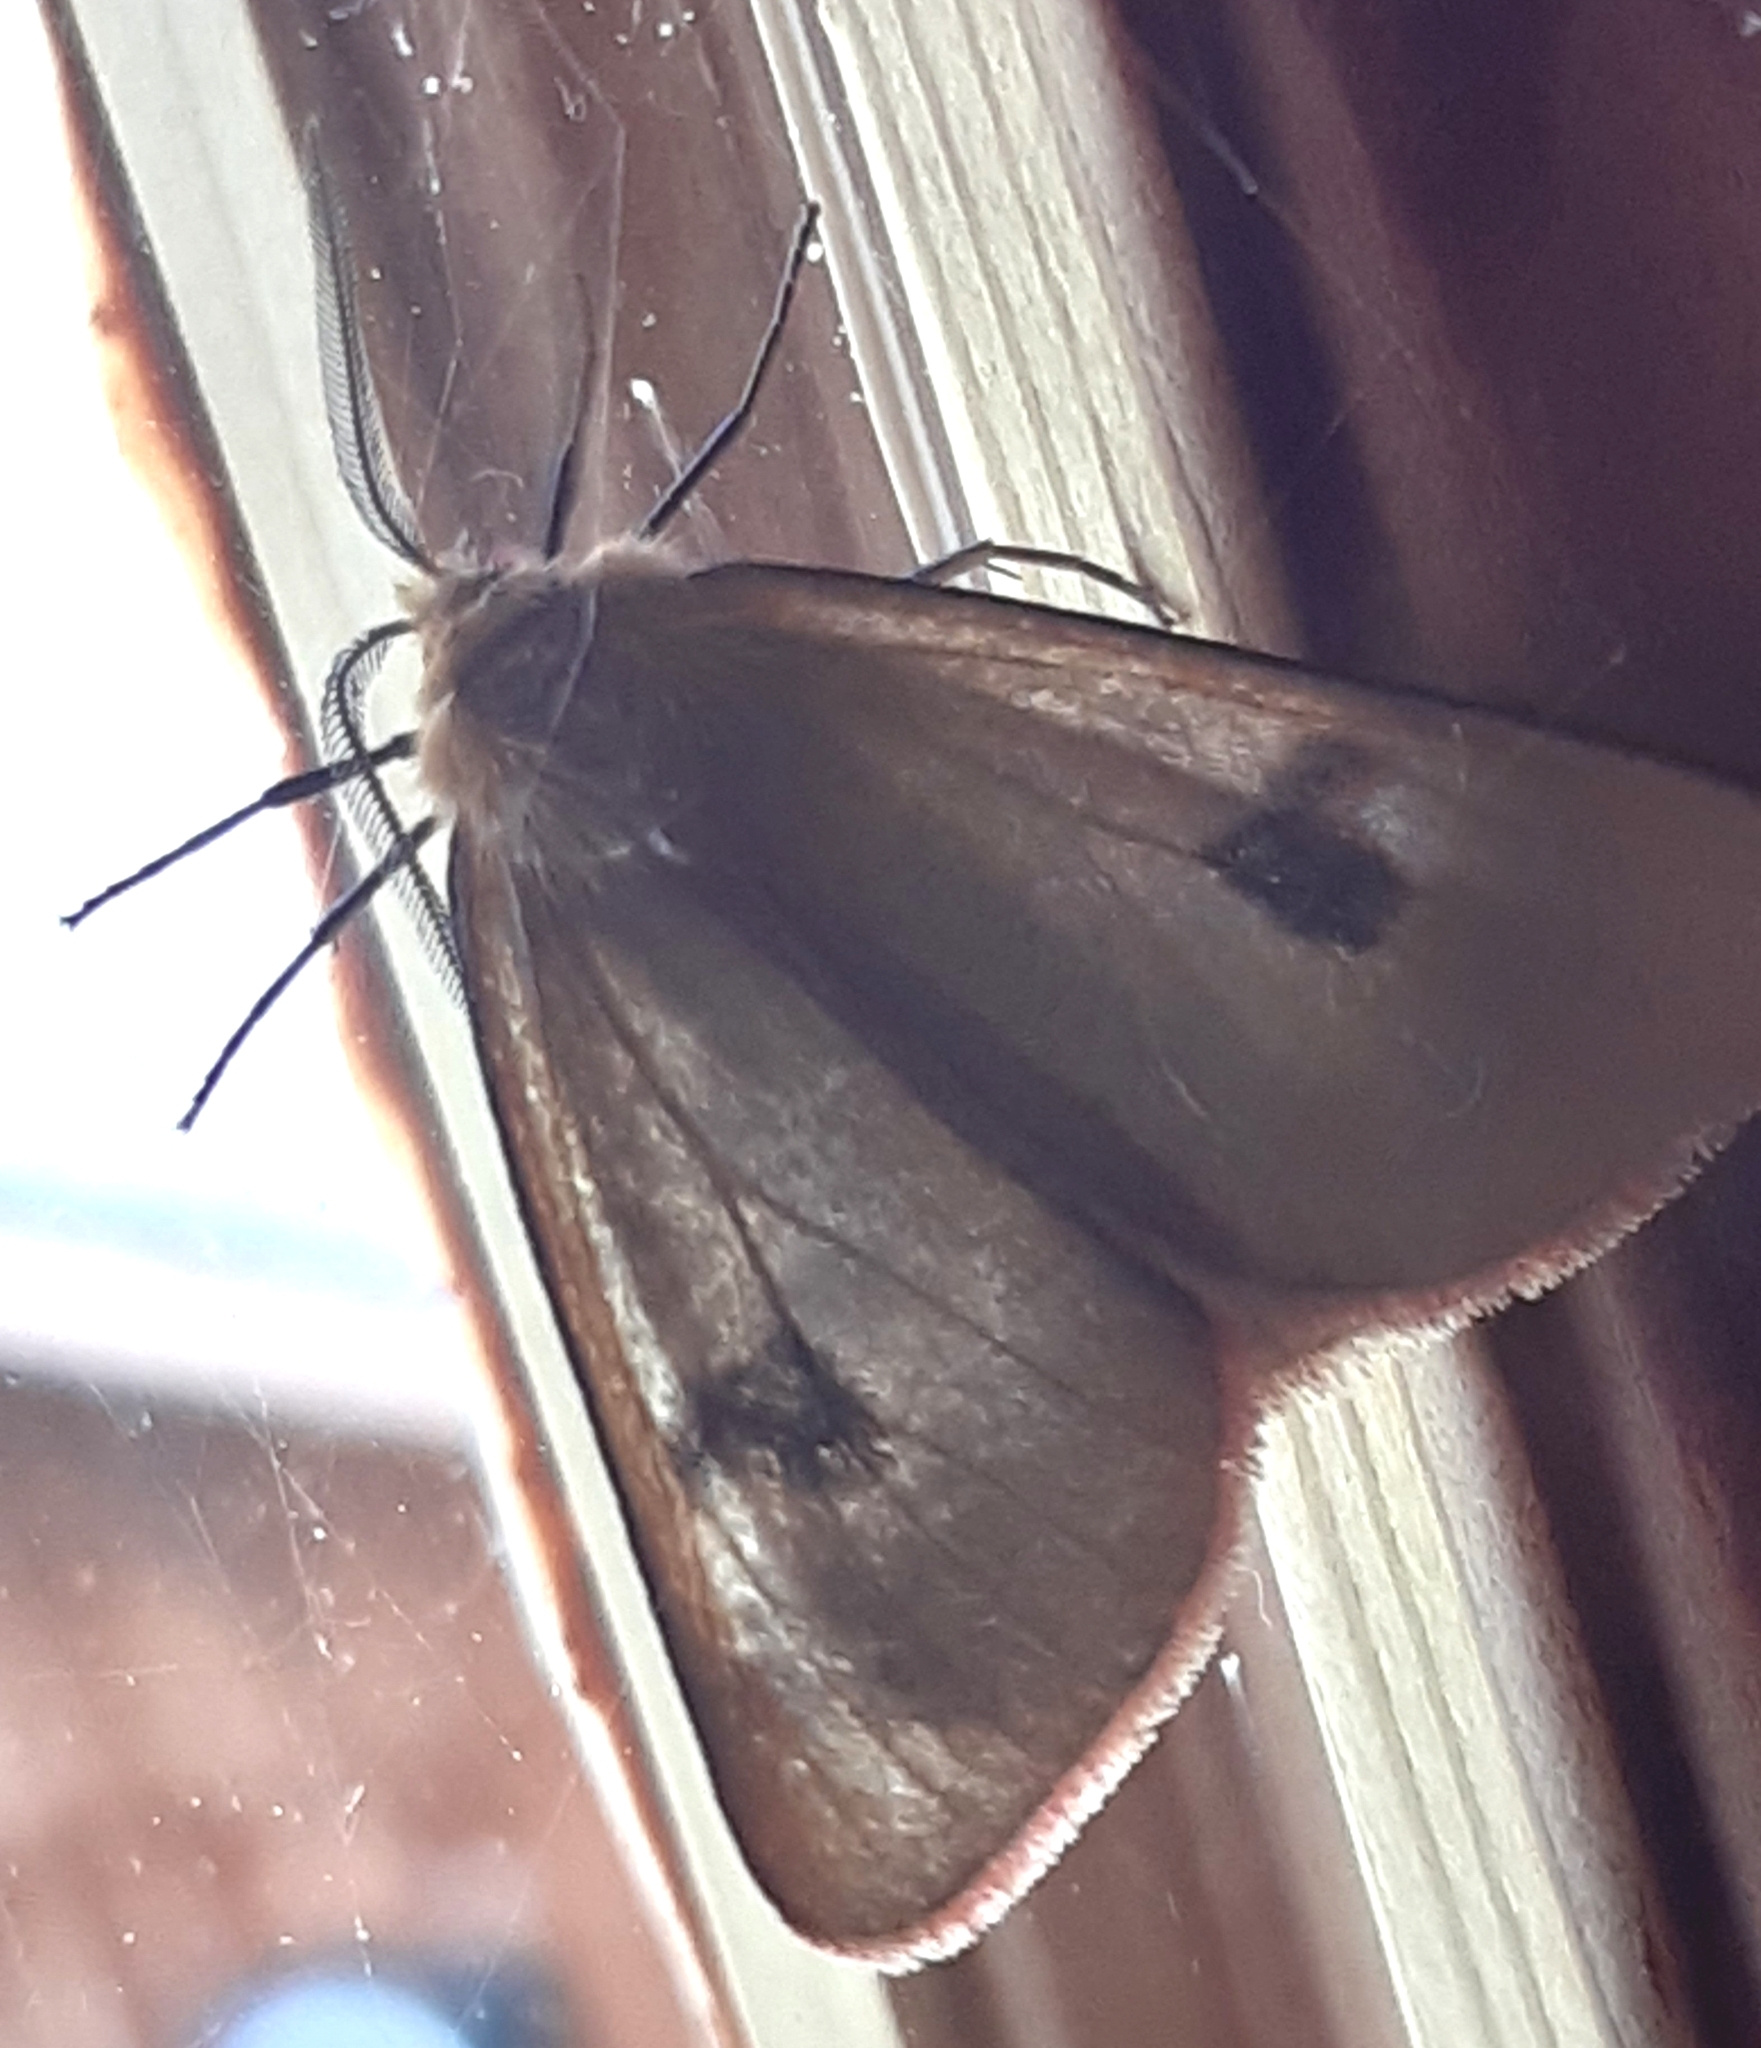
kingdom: Animalia
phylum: Arthropoda
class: Insecta
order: Lepidoptera
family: Erebidae
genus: Diacrisia
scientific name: Diacrisia sannio
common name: Clouded buff
